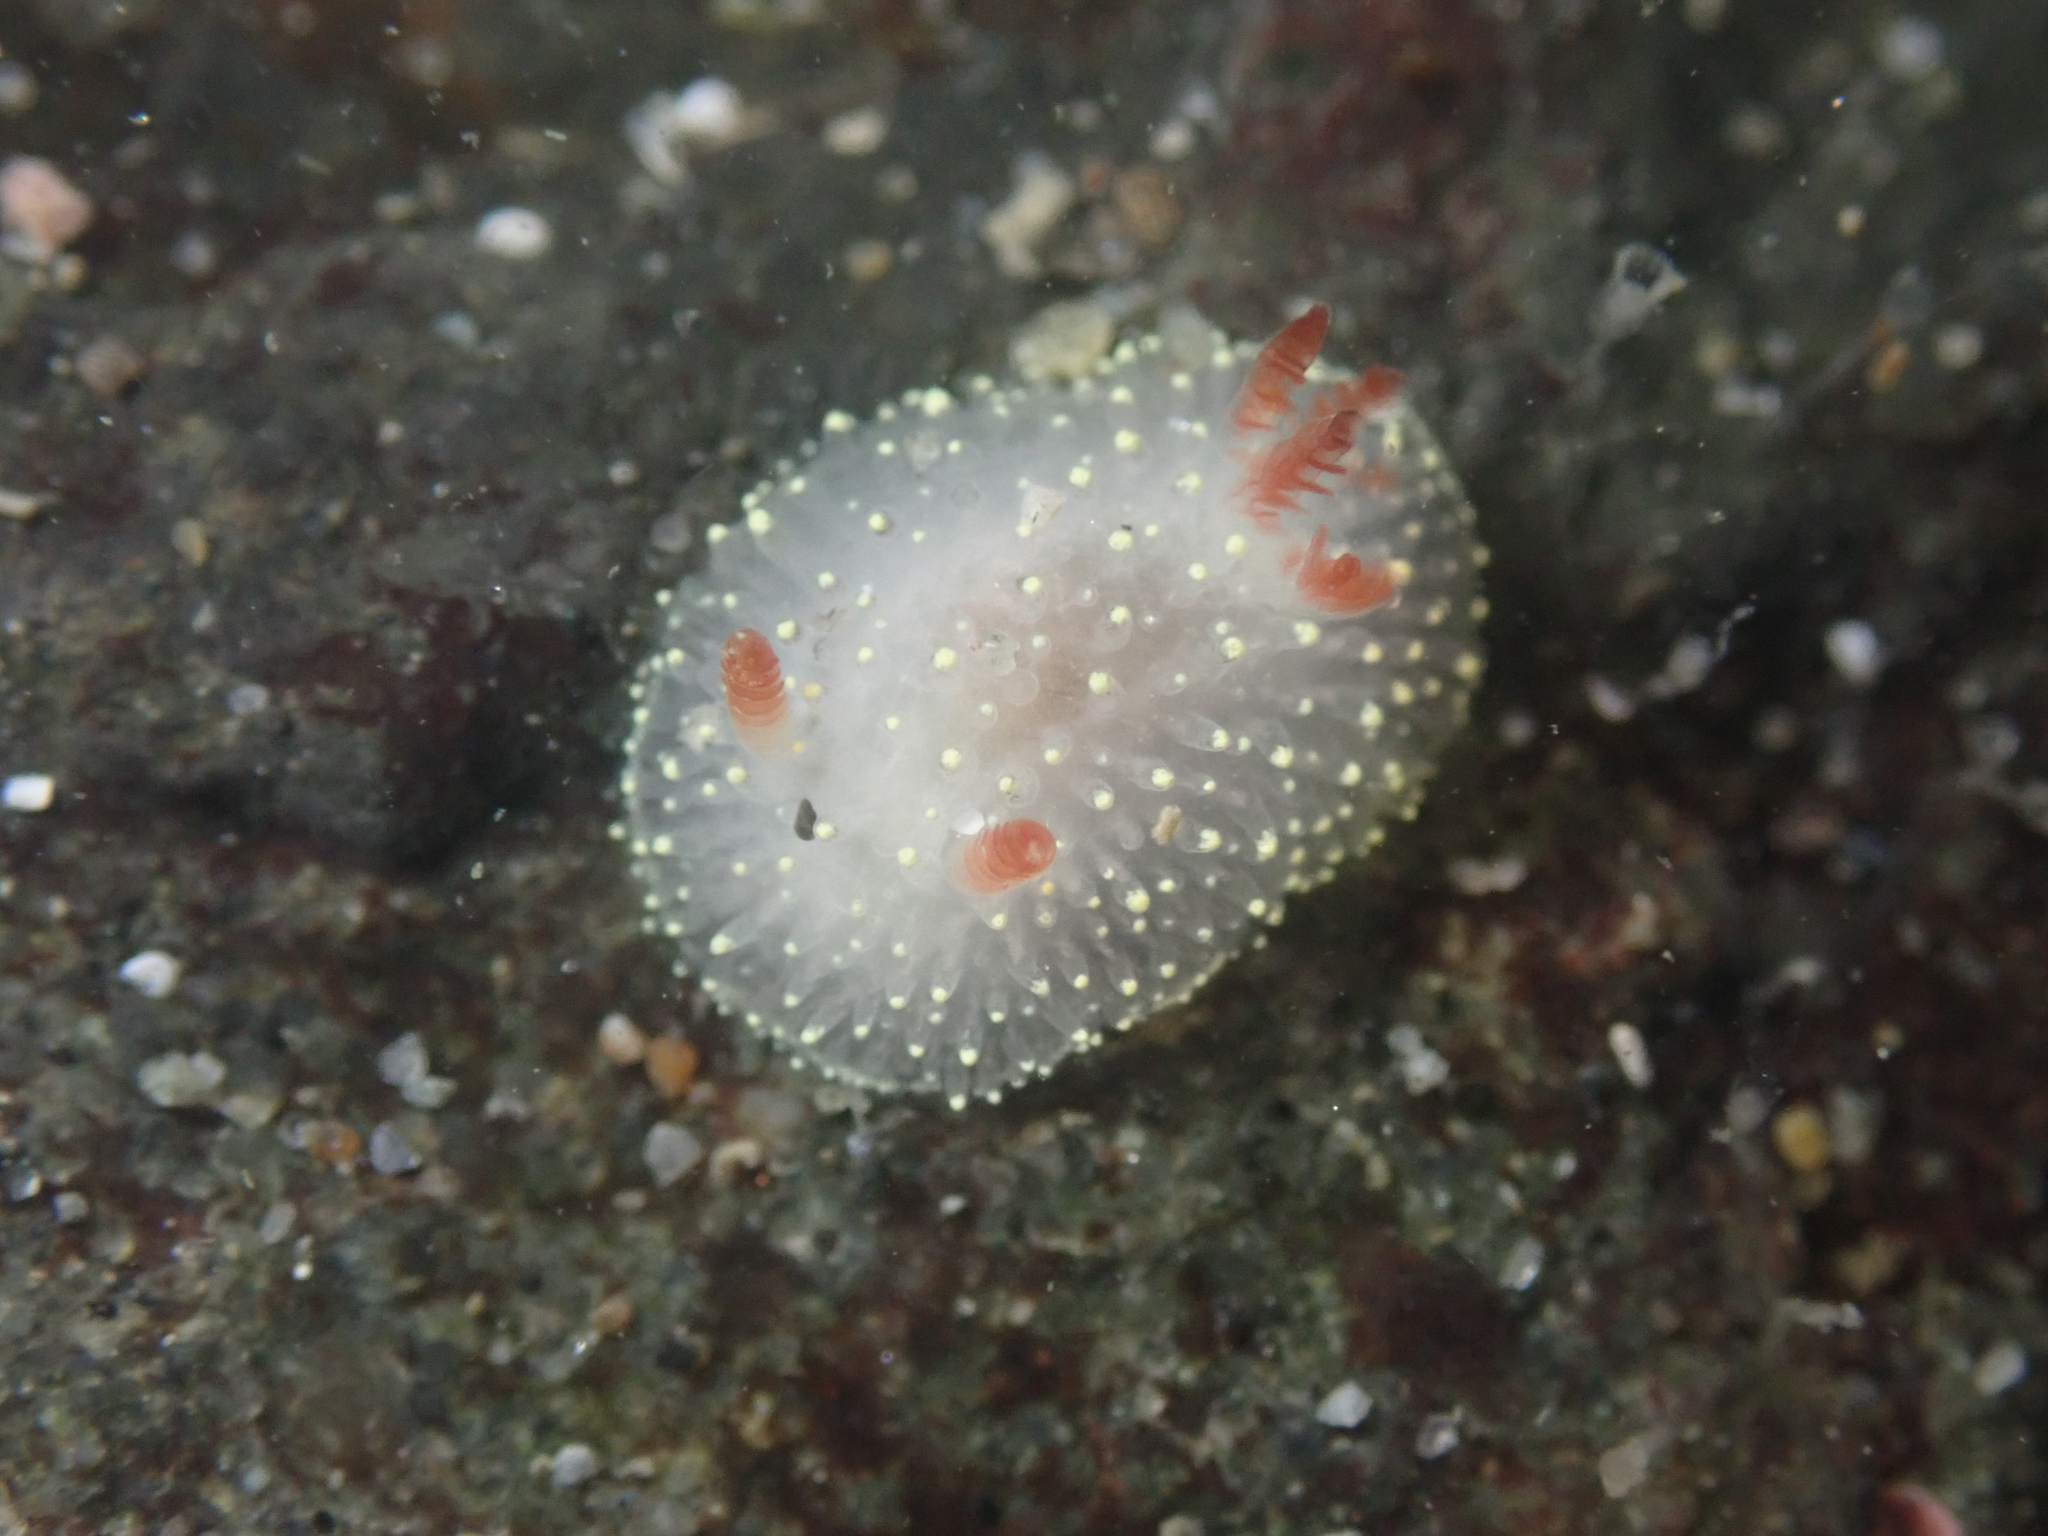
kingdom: Animalia
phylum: Mollusca
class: Gastropoda
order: Nudibranchia
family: Onchidorididae
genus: Acanthodoris
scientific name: Acanthodoris nanaimoensis
